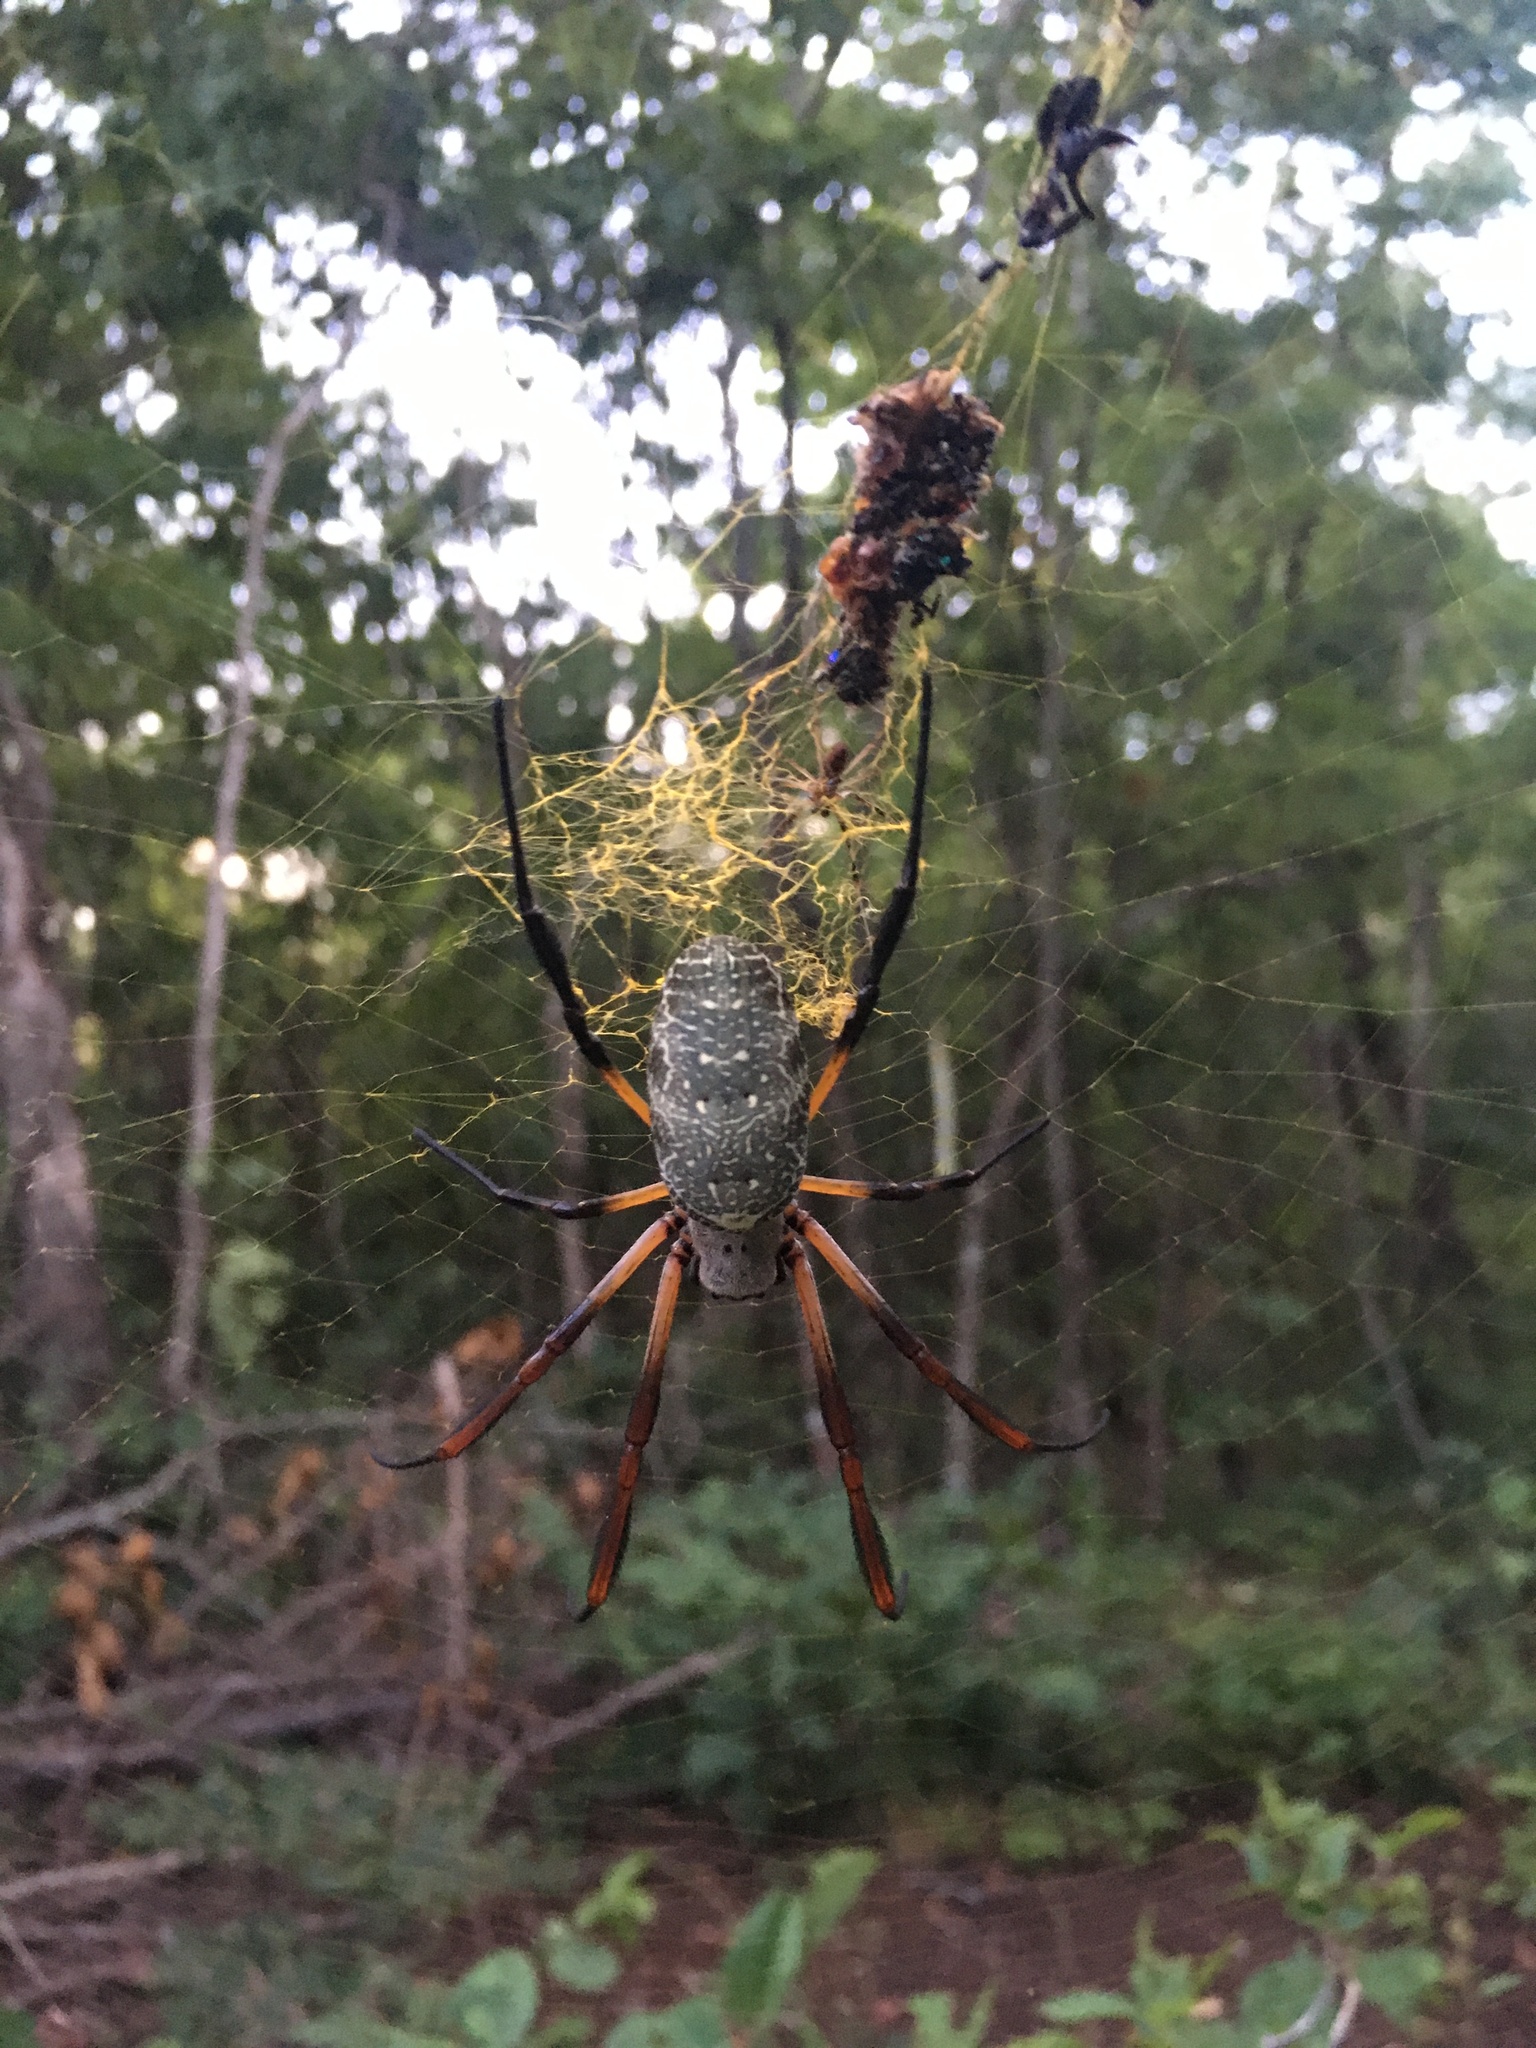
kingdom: Animalia
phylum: Arthropoda
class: Arachnida
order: Araneae
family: Araneidae
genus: Trichonephila
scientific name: Trichonephila sexpunctata
